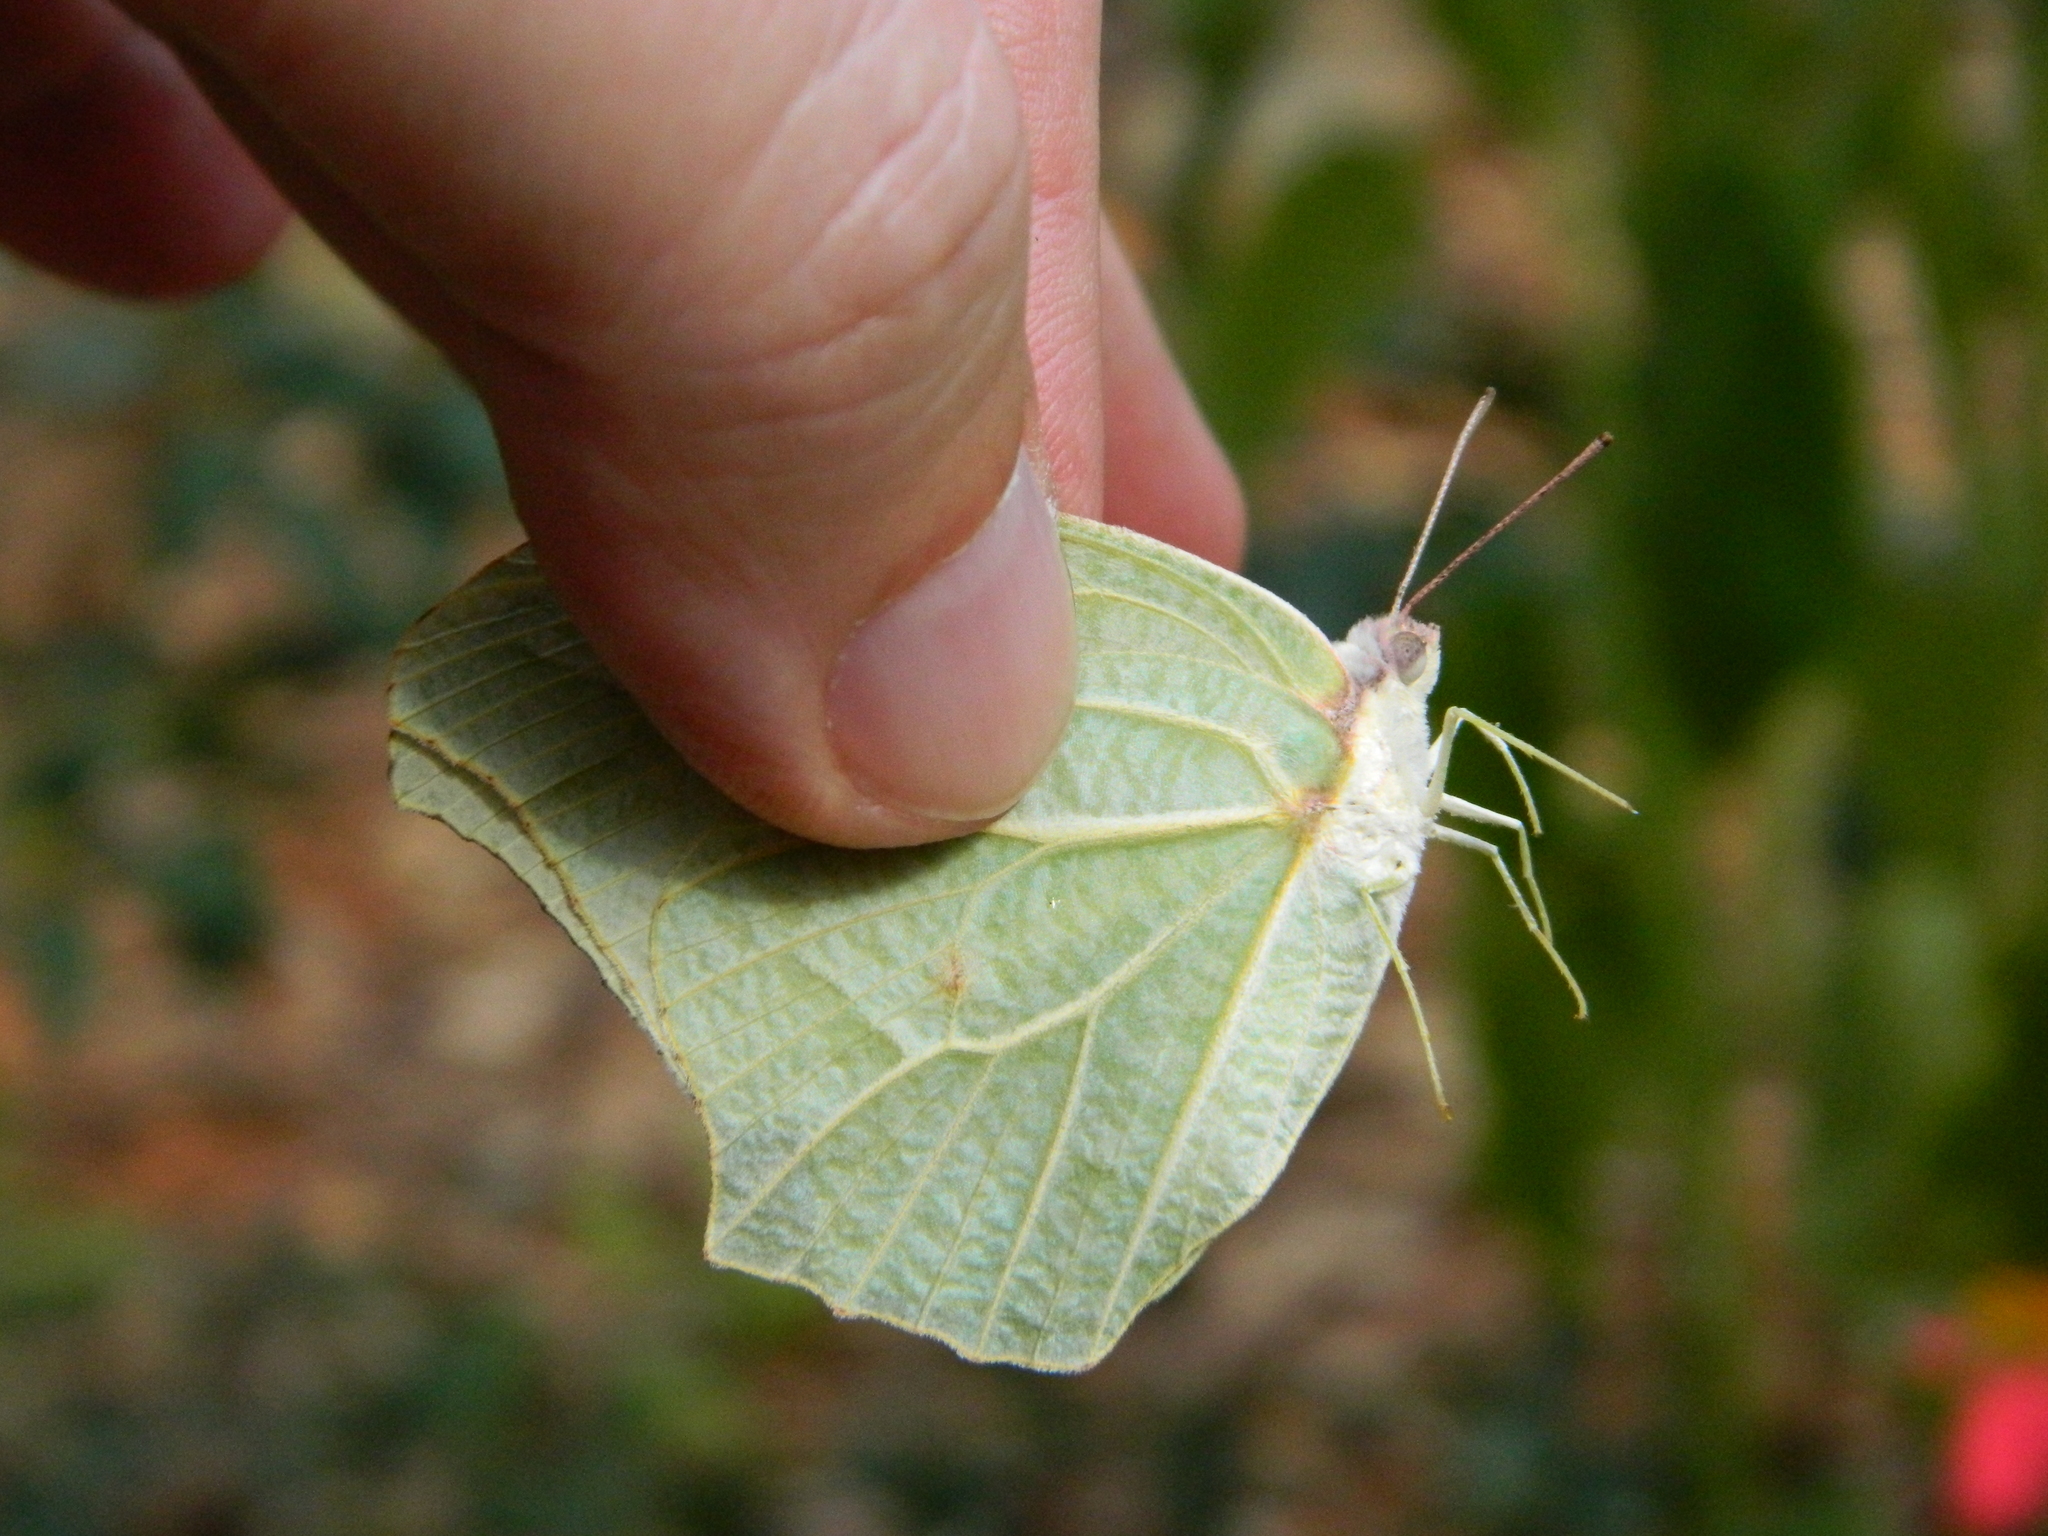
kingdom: Animalia
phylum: Arthropoda
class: Insecta
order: Lepidoptera
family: Pieridae
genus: Anteos
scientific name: Anteos clorinde
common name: White angled sulphur
